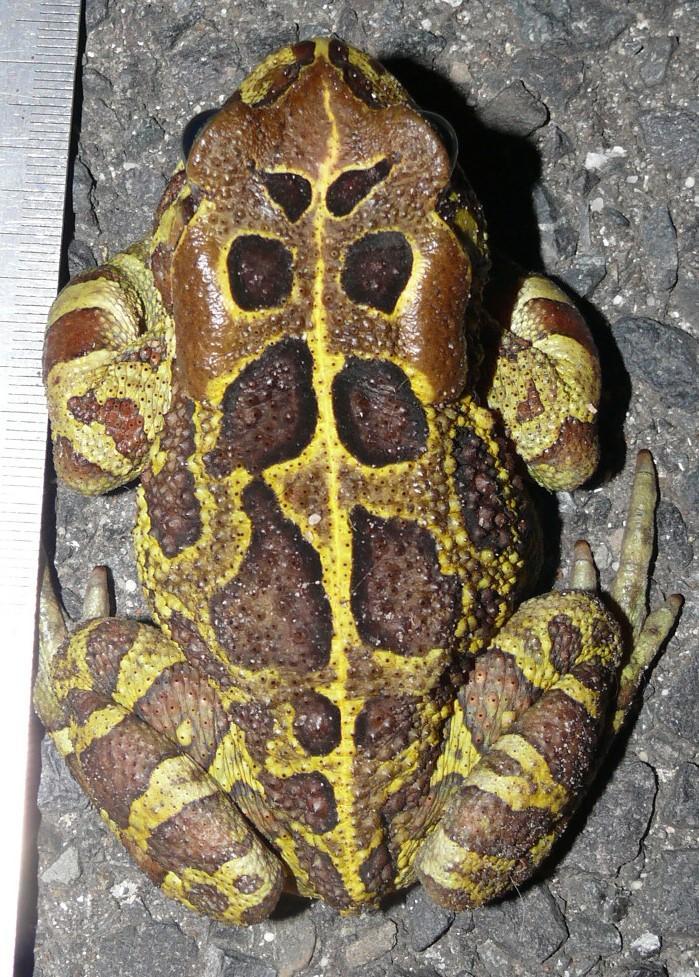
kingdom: Animalia
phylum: Chordata
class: Amphibia
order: Anura
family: Bufonidae
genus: Sclerophrys
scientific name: Sclerophrys pantherina
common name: Panther toad
